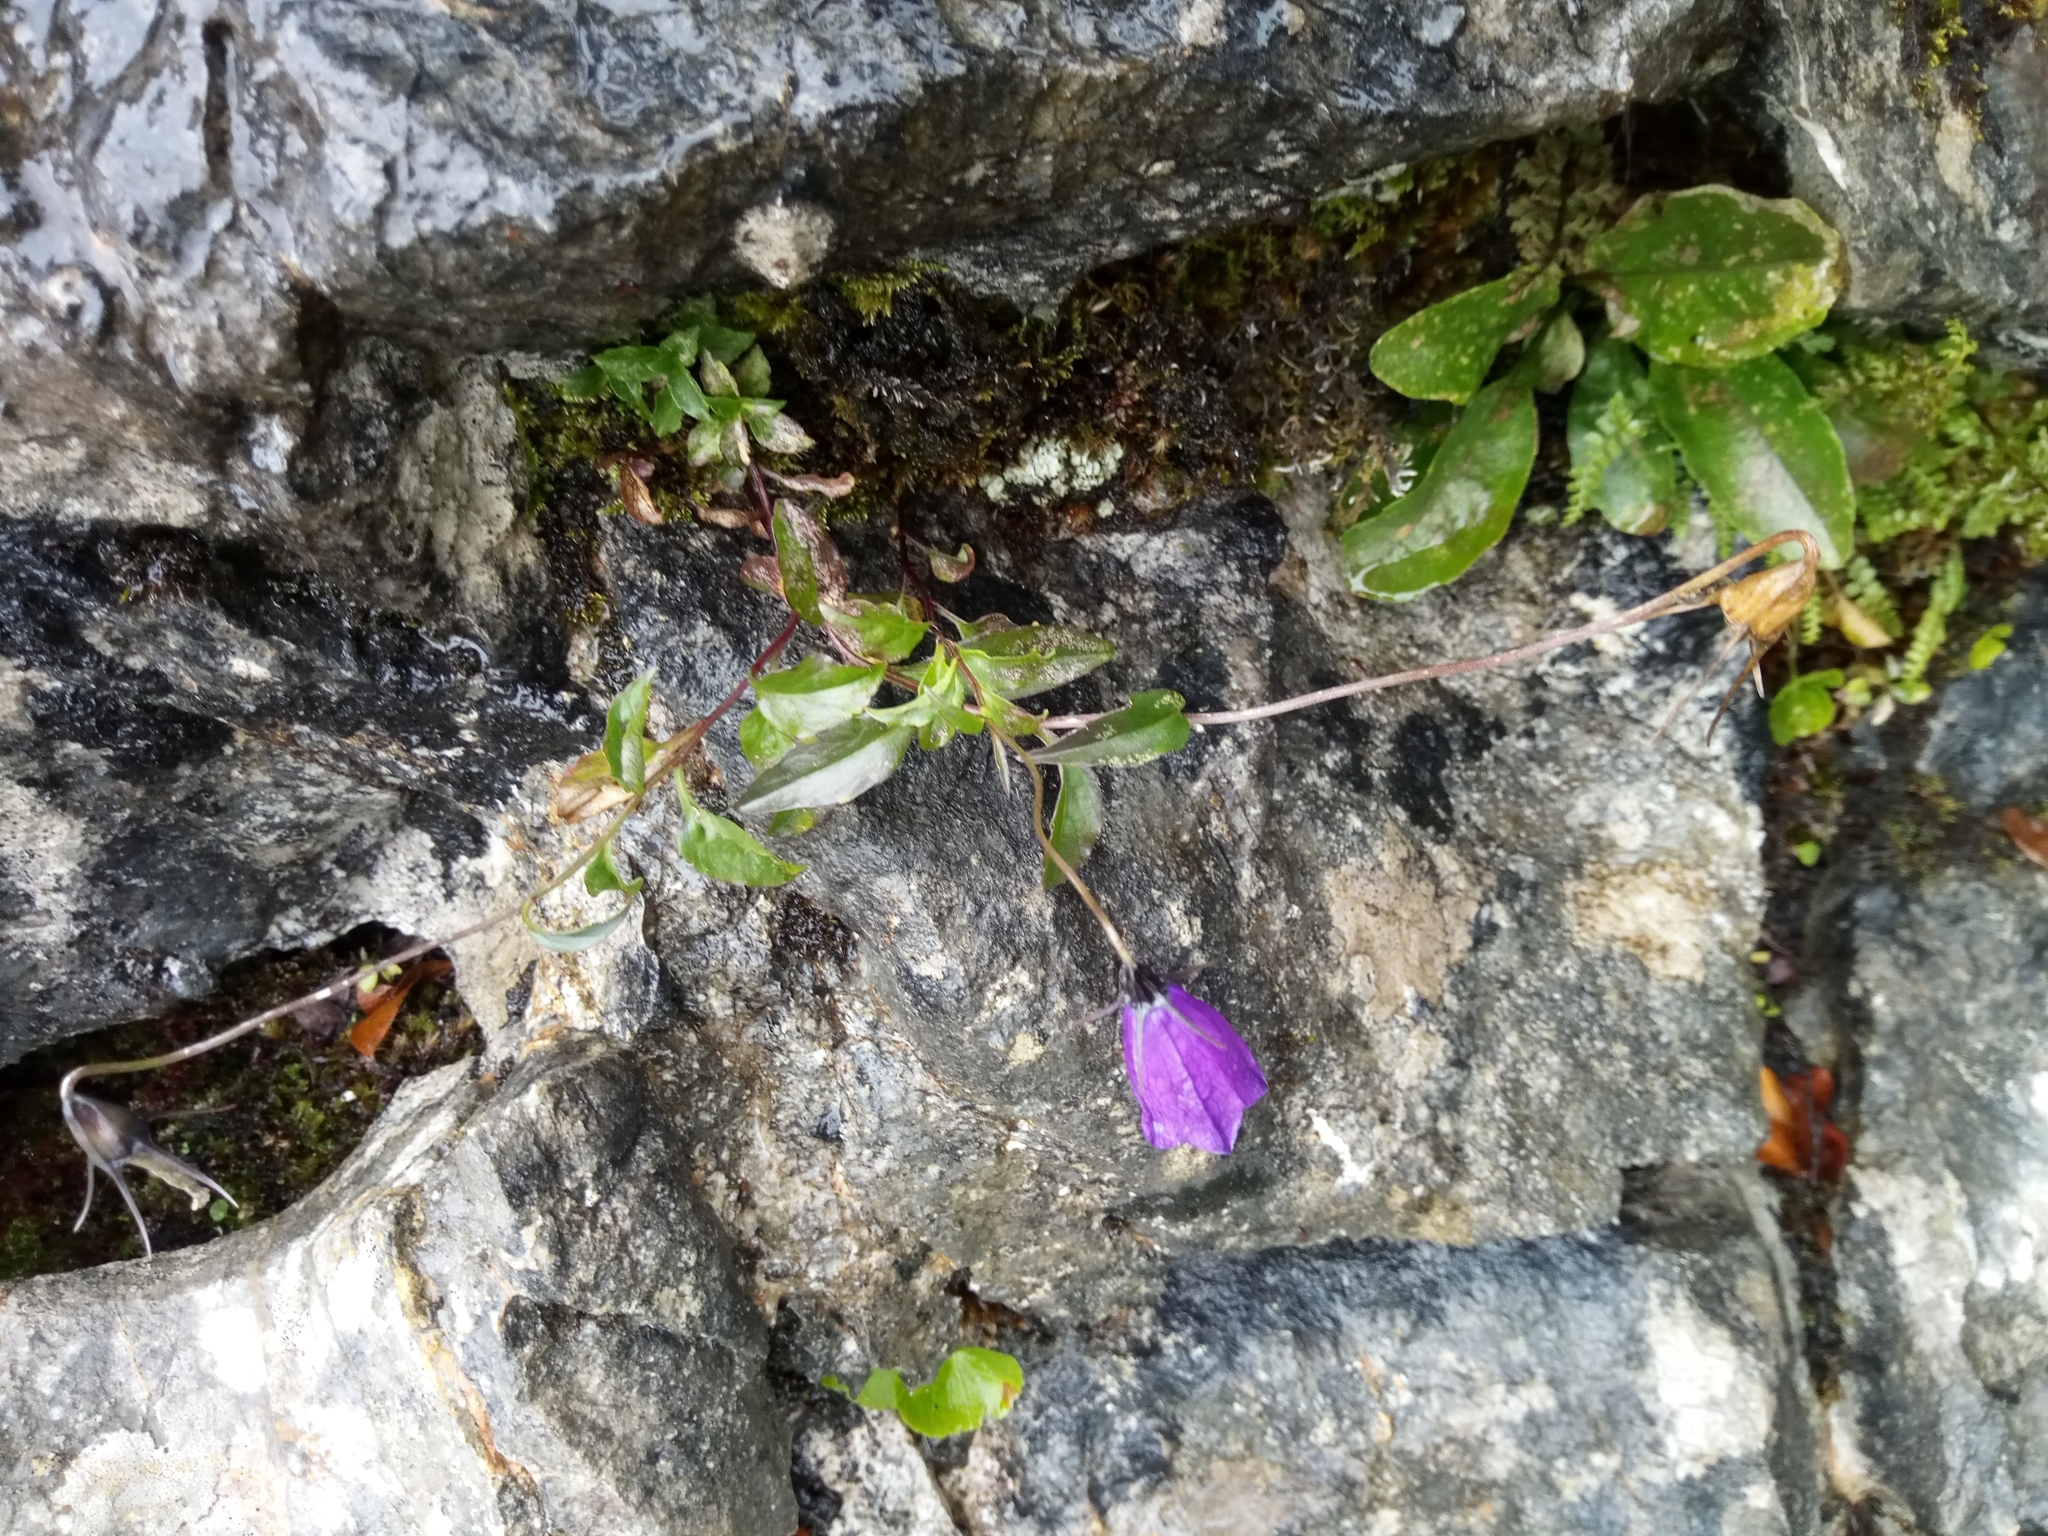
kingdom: Plantae
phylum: Tracheophyta
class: Magnoliopsida
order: Asterales
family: Campanulaceae
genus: Campanula
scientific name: Campanula pulla
